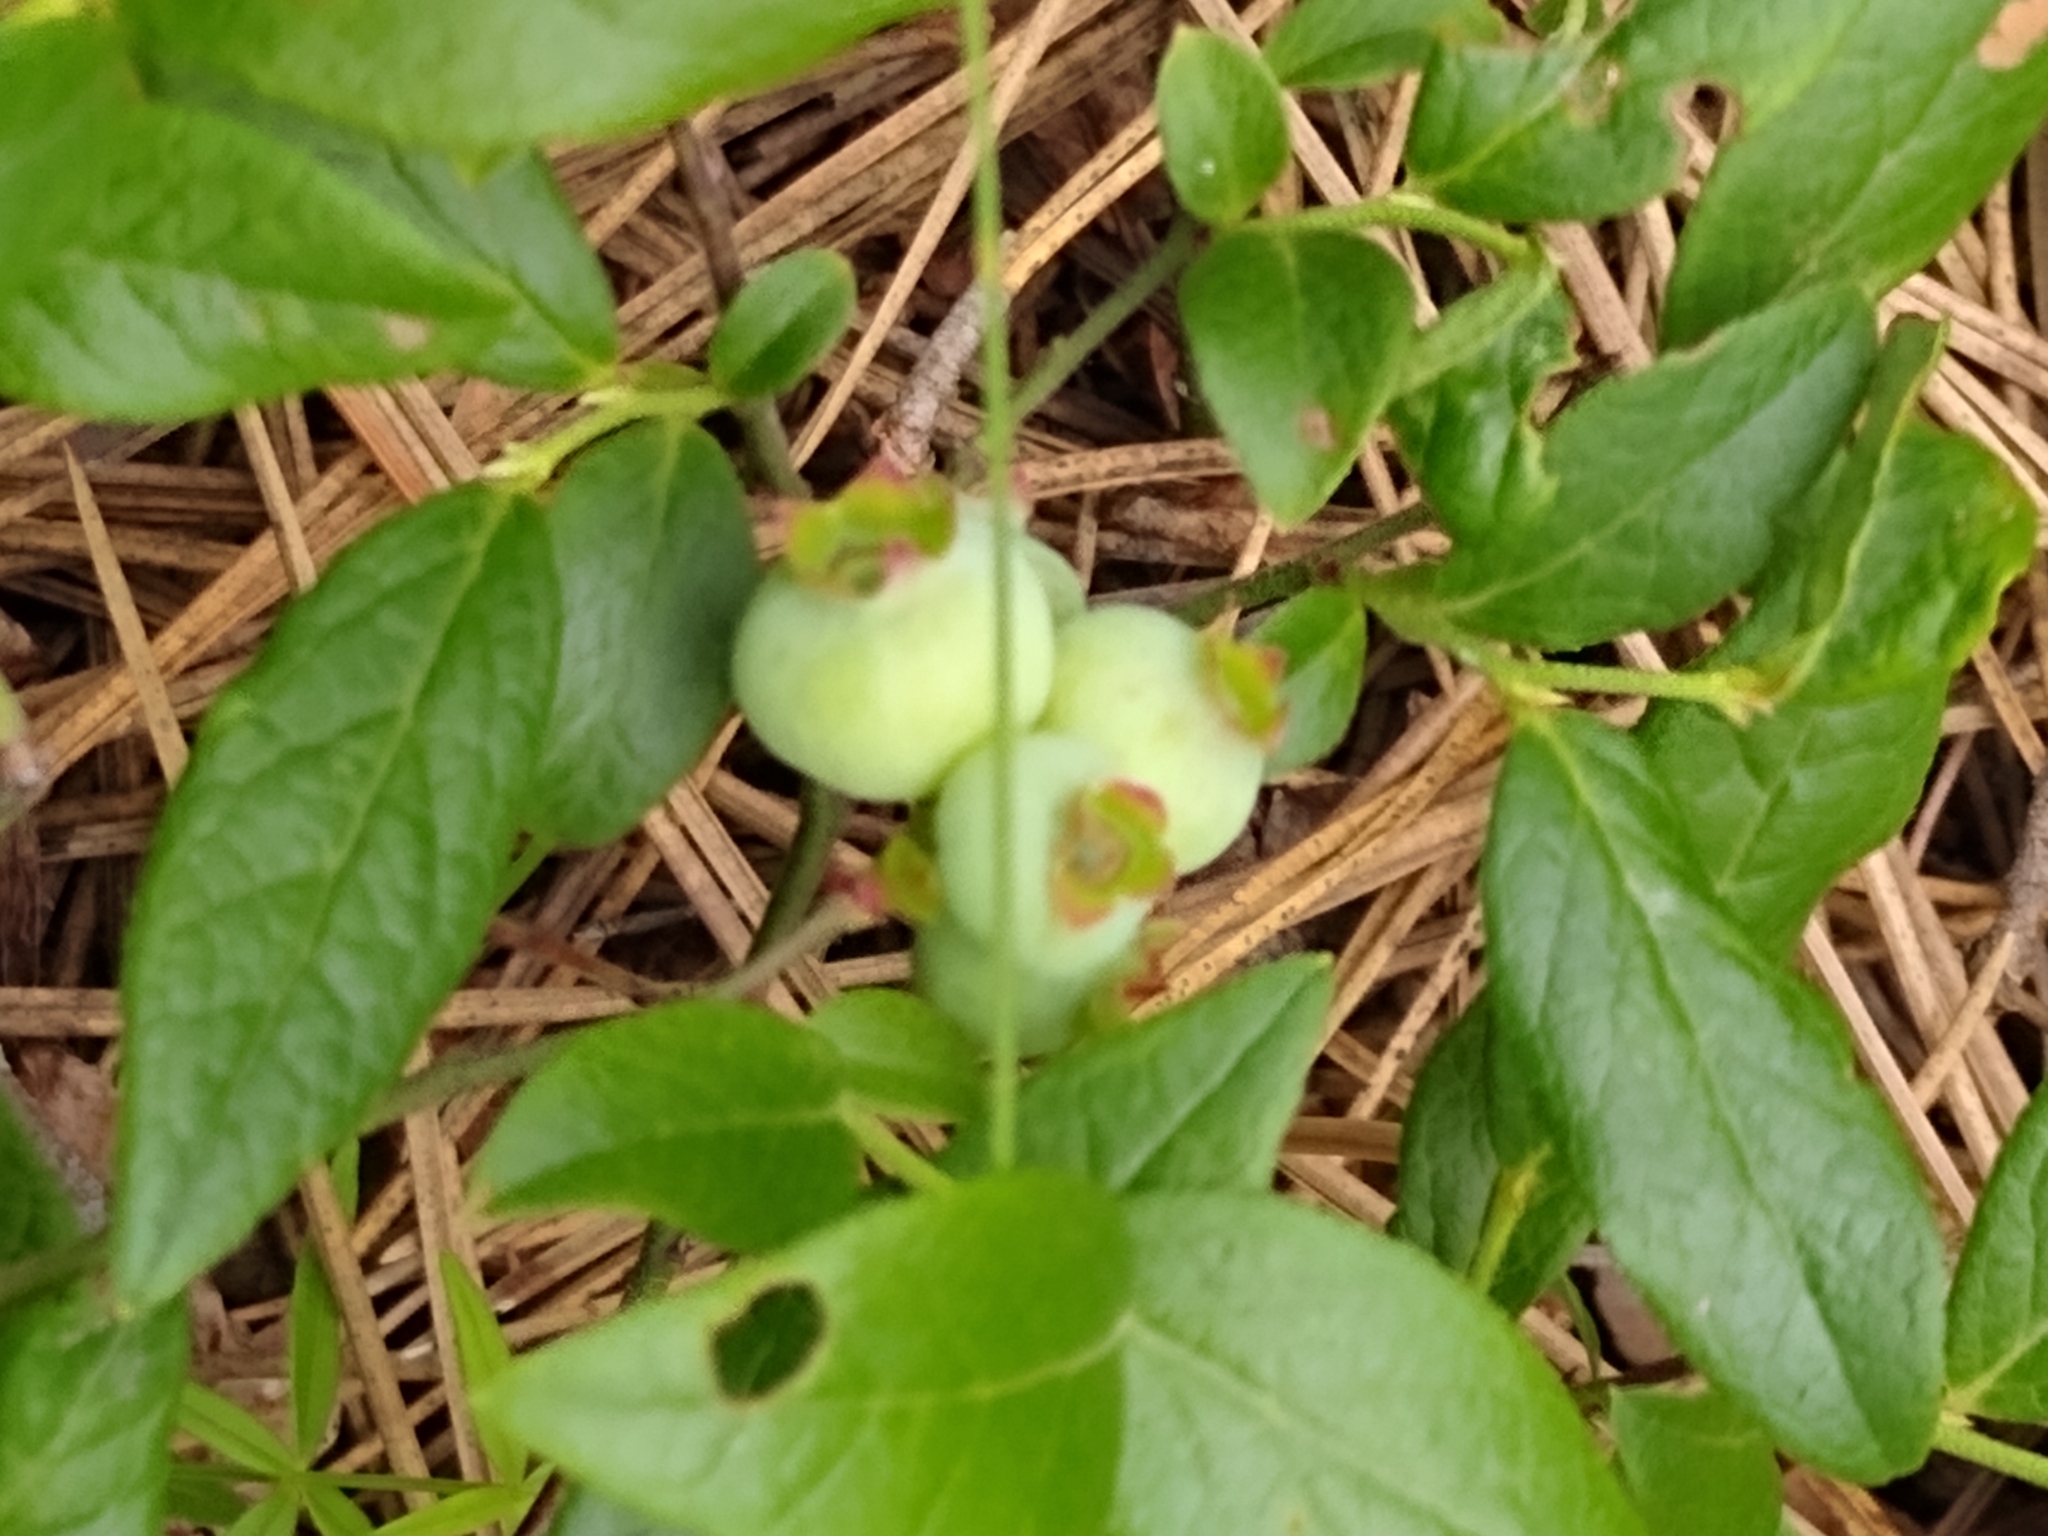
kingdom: Plantae
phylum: Tracheophyta
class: Magnoliopsida
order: Ericales
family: Ericaceae
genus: Vaccinium
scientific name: Vaccinium angustifolium
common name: Early lowbush blueberry
